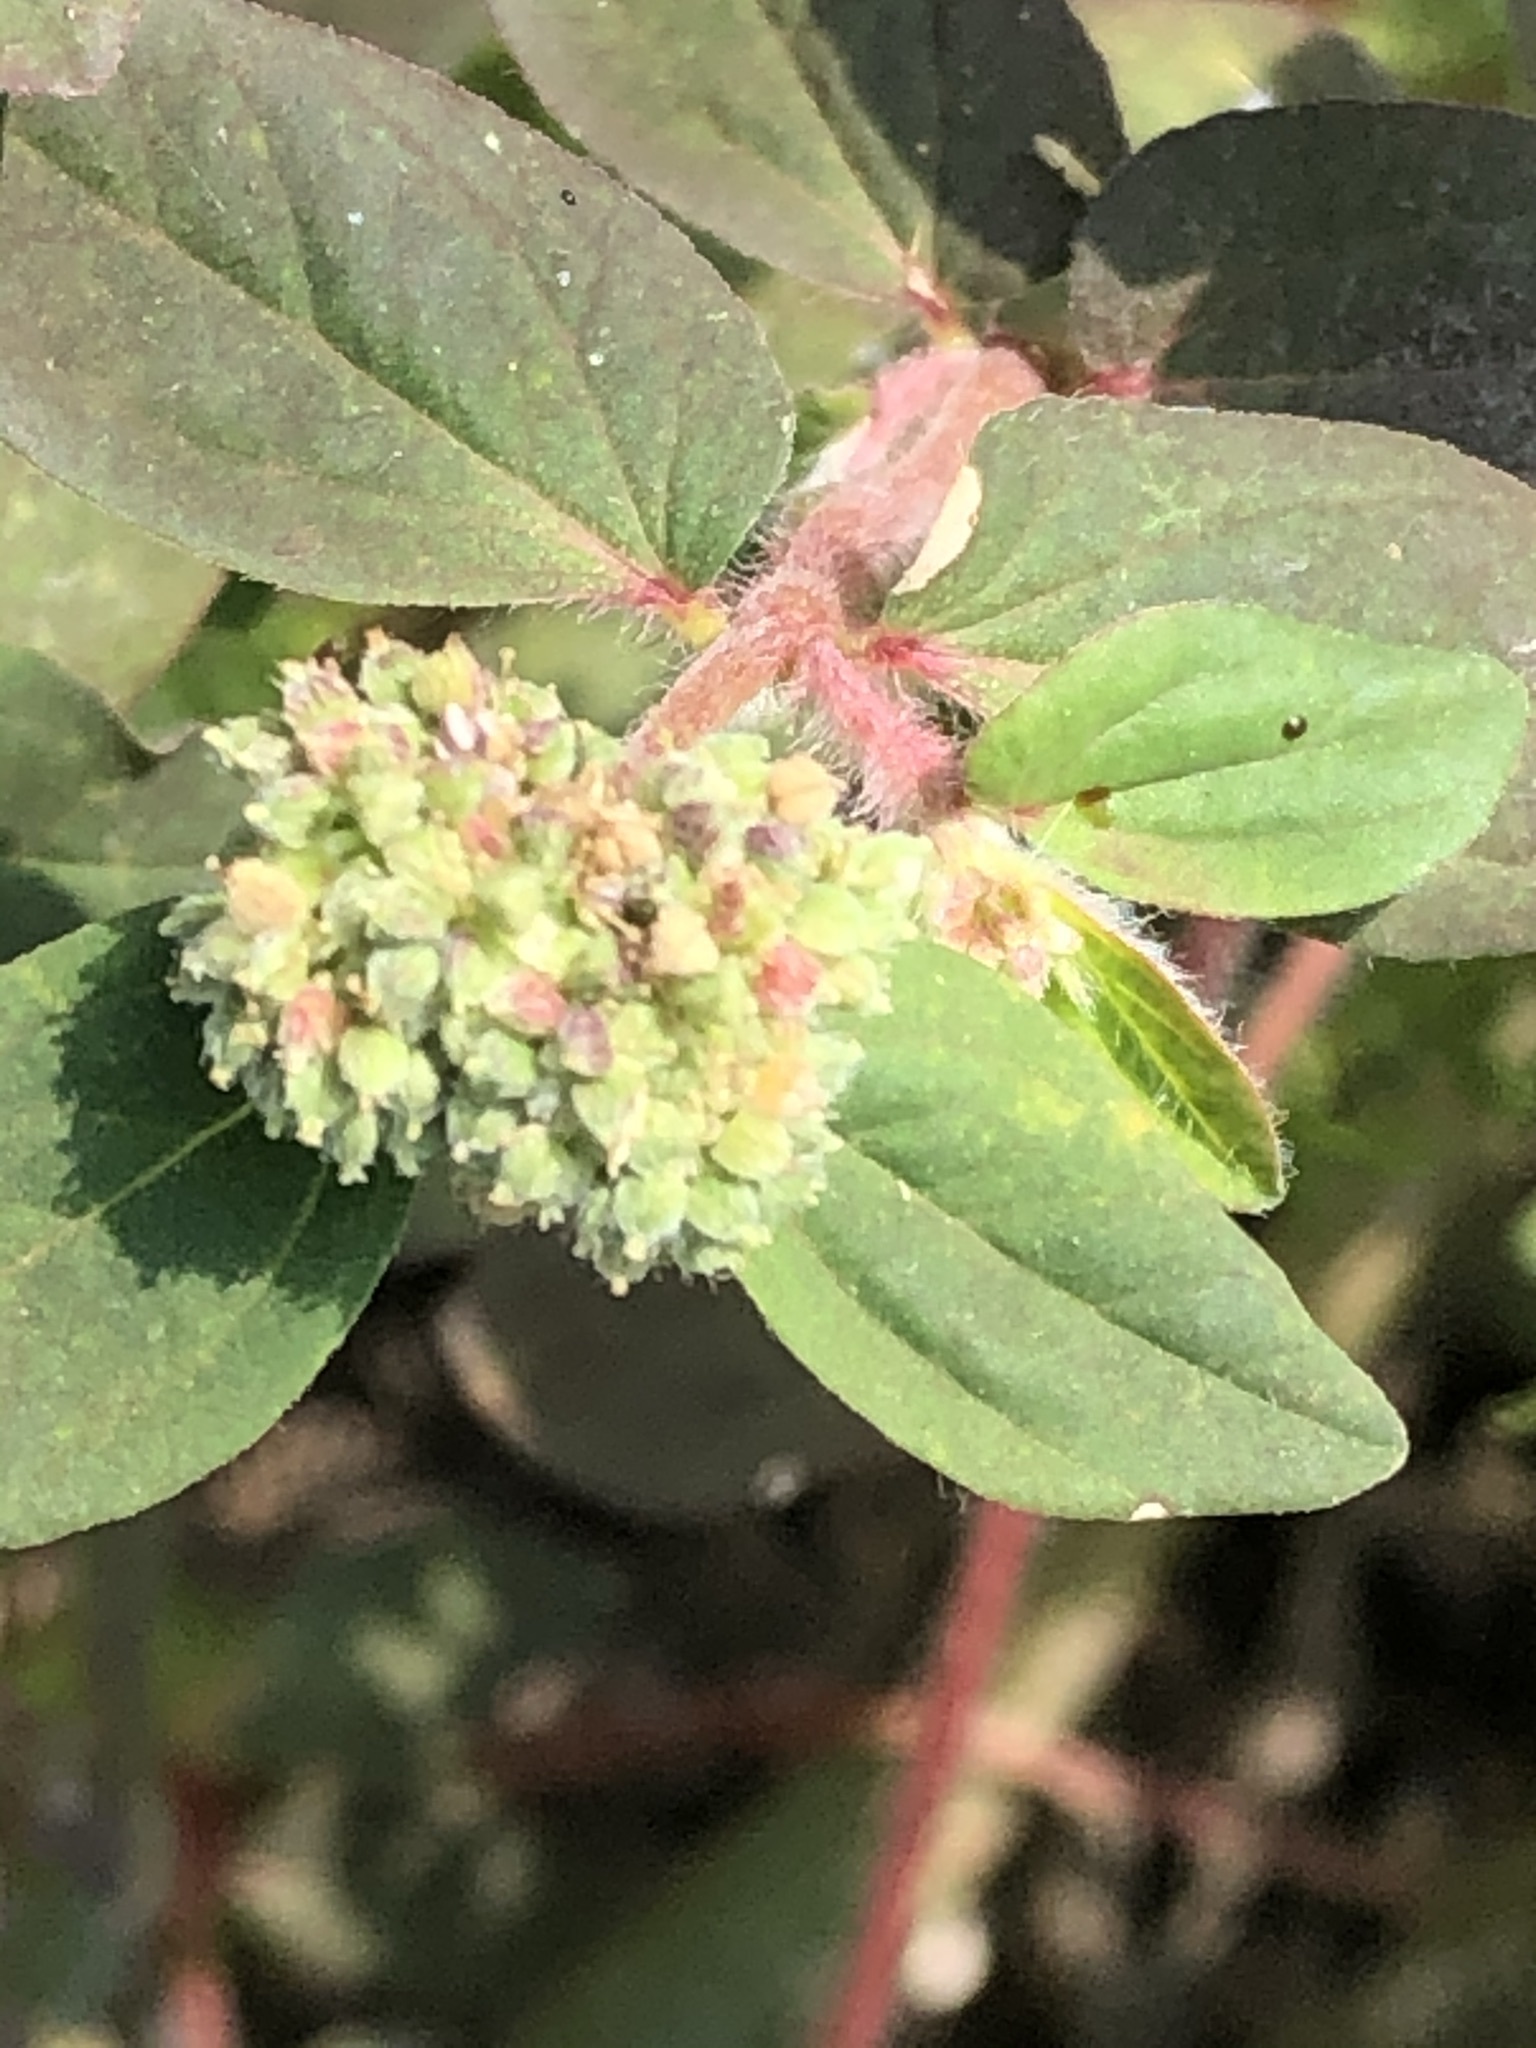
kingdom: Plantae
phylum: Tracheophyta
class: Magnoliopsida
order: Malpighiales
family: Euphorbiaceae
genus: Euphorbia
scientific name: Euphorbia ophthalmica
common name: Florida hammock sandmat
